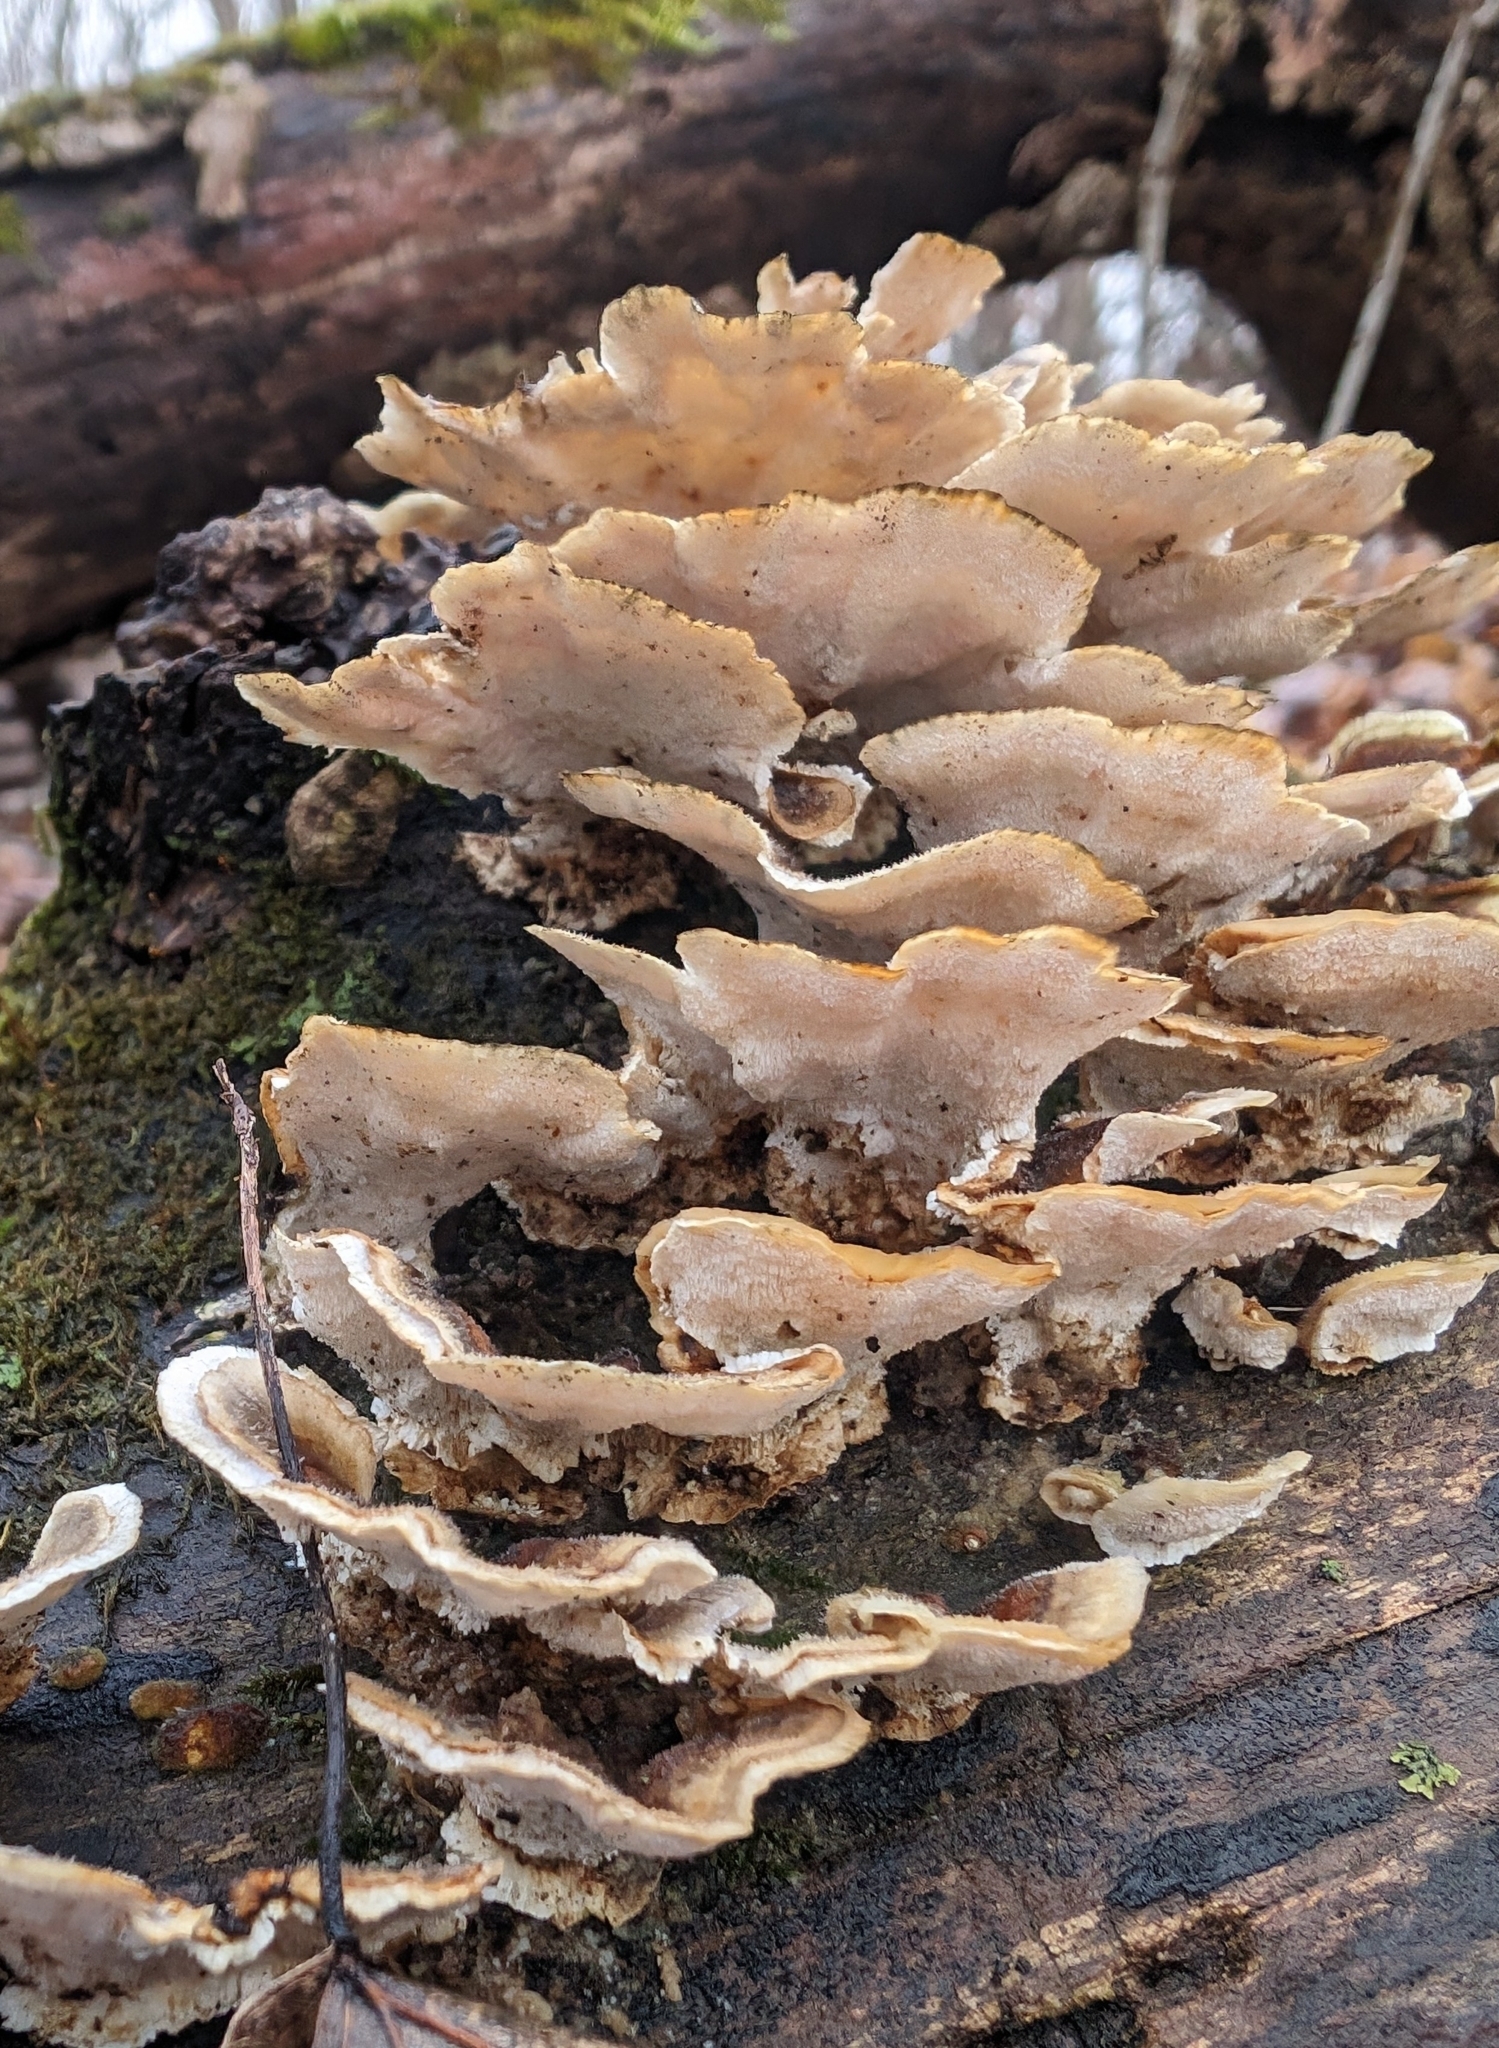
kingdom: Fungi
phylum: Basidiomycota
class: Agaricomycetes
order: Polyporales
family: Polyporaceae
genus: Trametes
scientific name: Trametes versicolor
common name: Turkeytail
